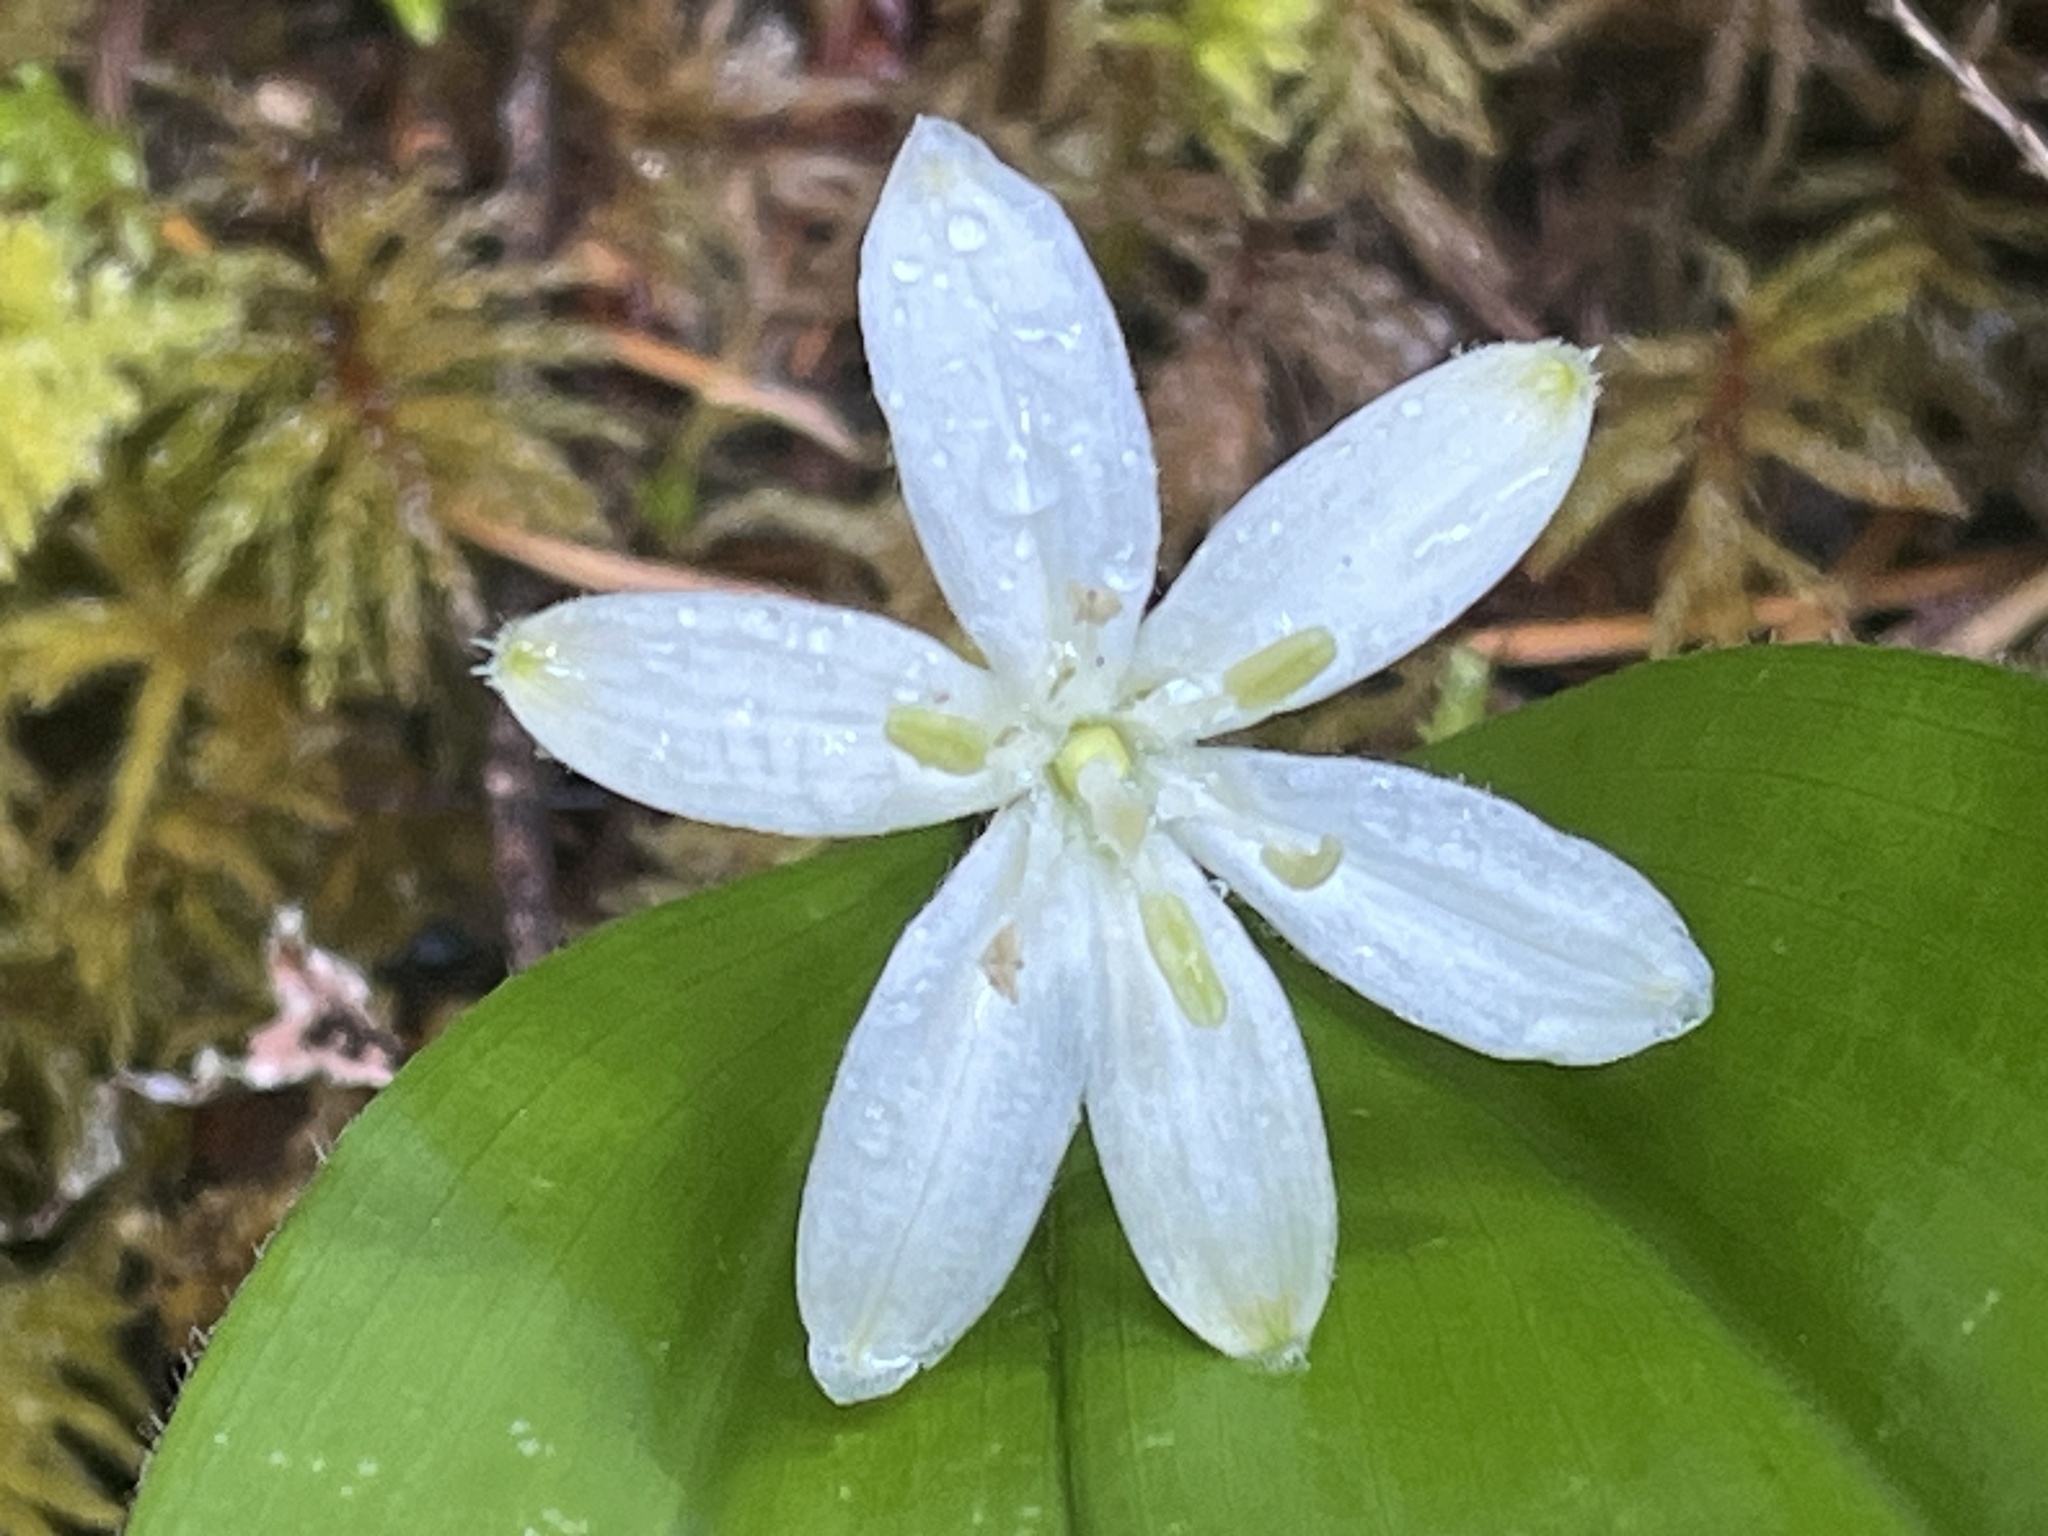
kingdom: Plantae
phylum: Tracheophyta
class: Liliopsida
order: Liliales
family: Liliaceae
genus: Clintonia
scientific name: Clintonia uniflora
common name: Queen's cup
